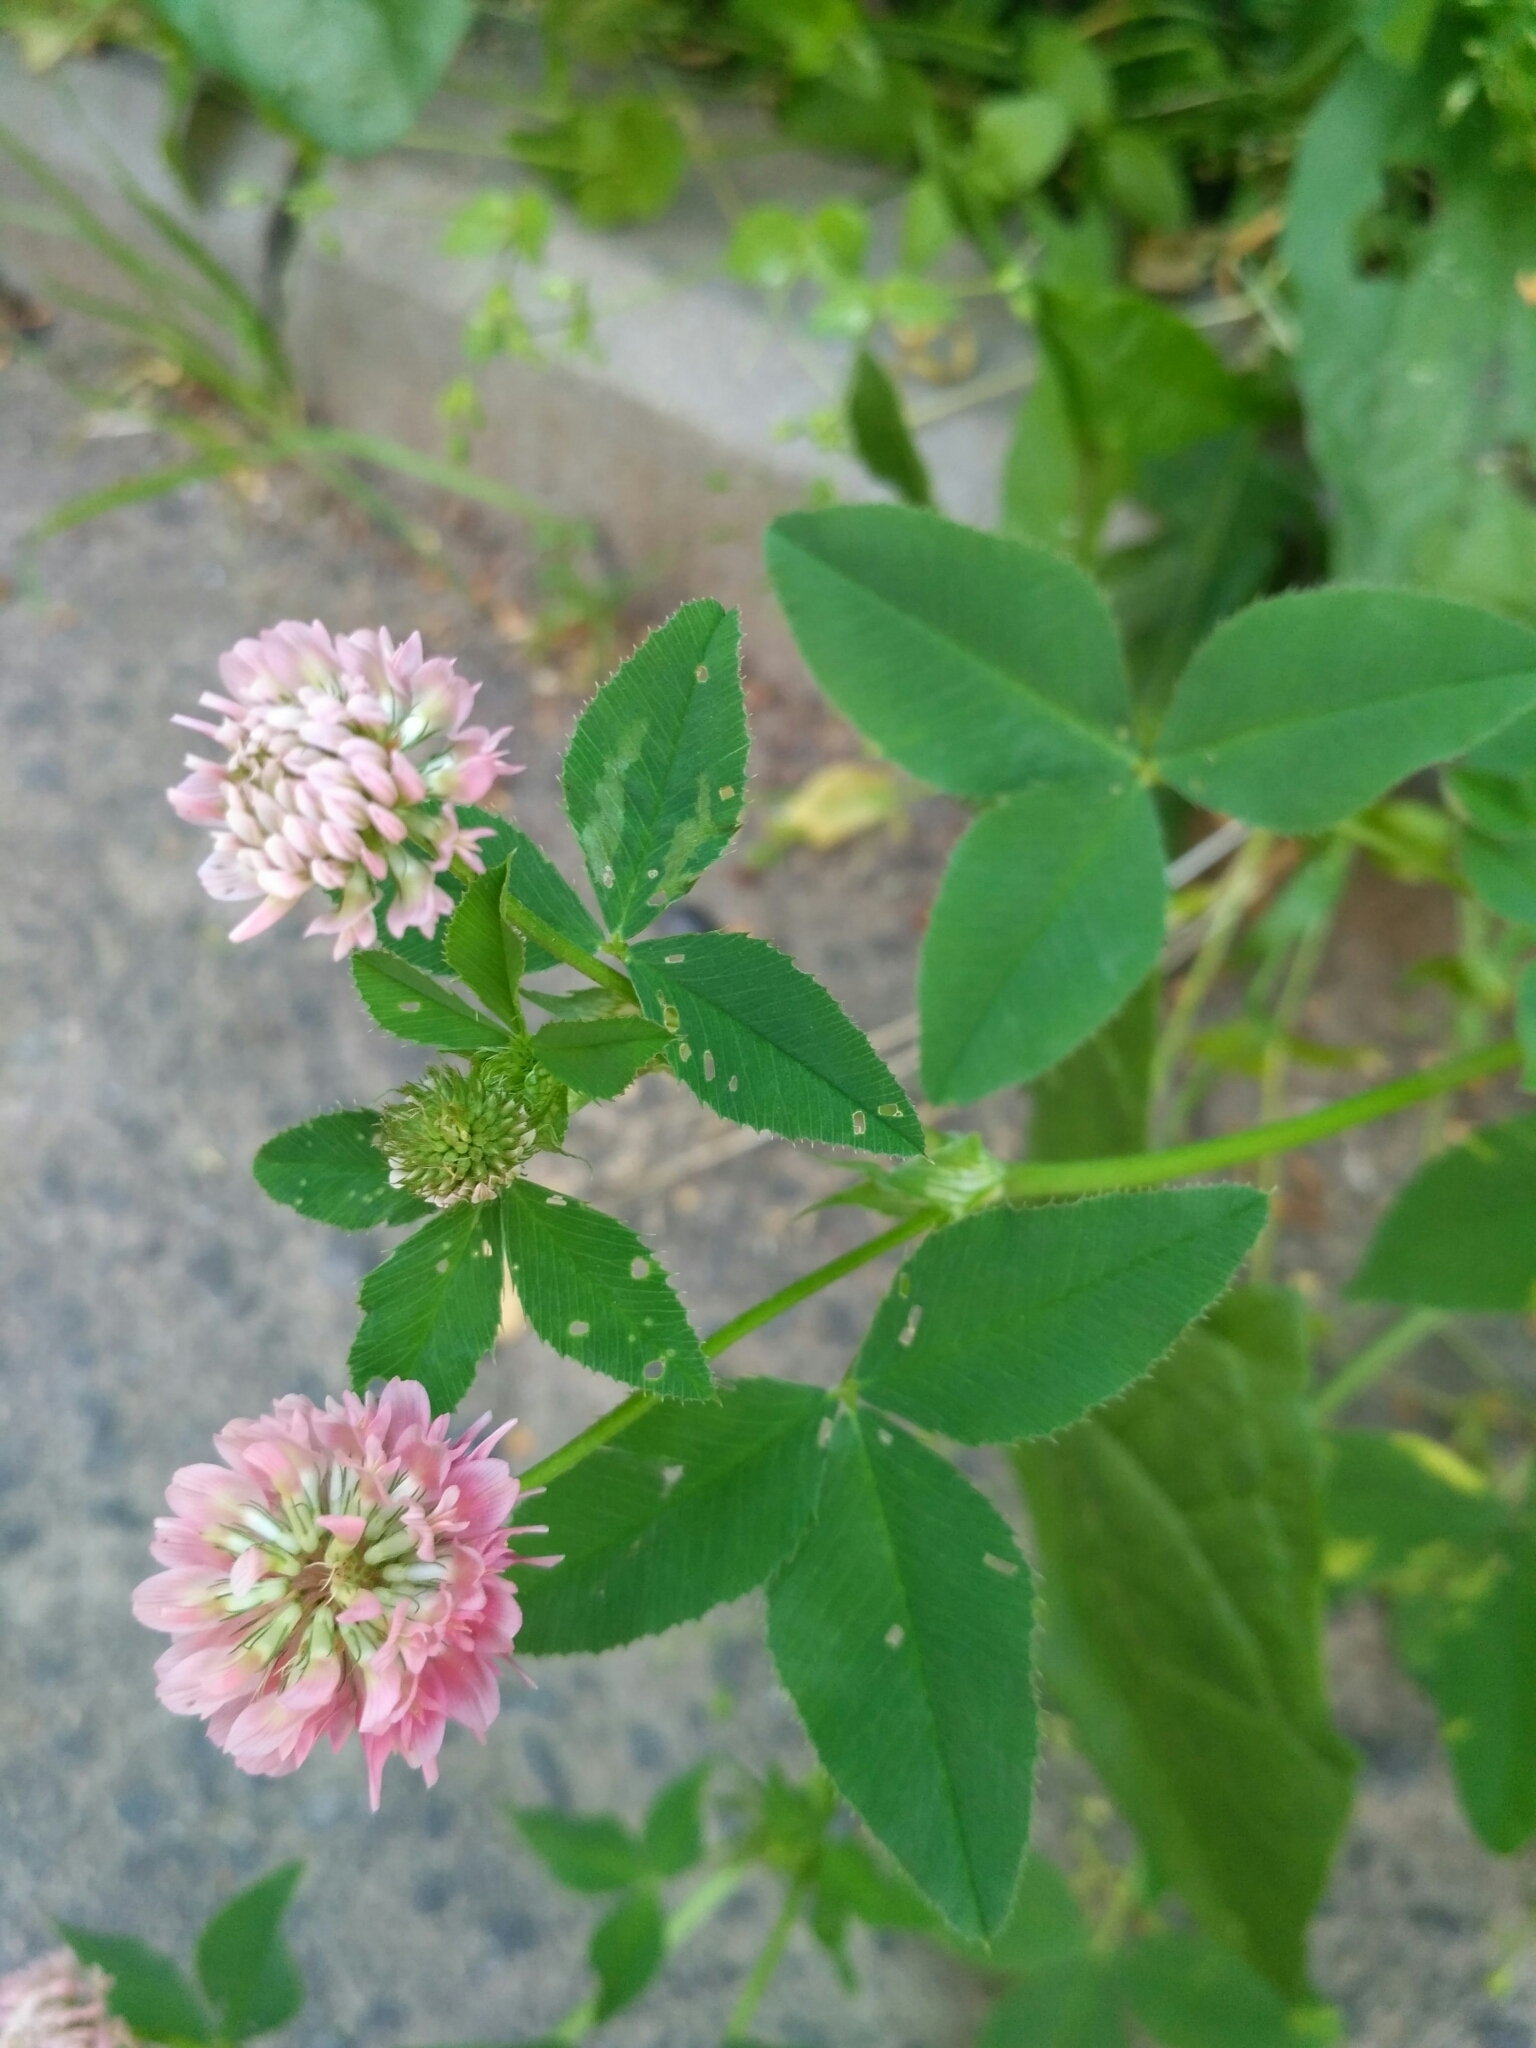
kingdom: Plantae
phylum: Tracheophyta
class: Magnoliopsida
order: Fabales
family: Fabaceae
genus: Trifolium
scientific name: Trifolium hybridum
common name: Alsike clover
